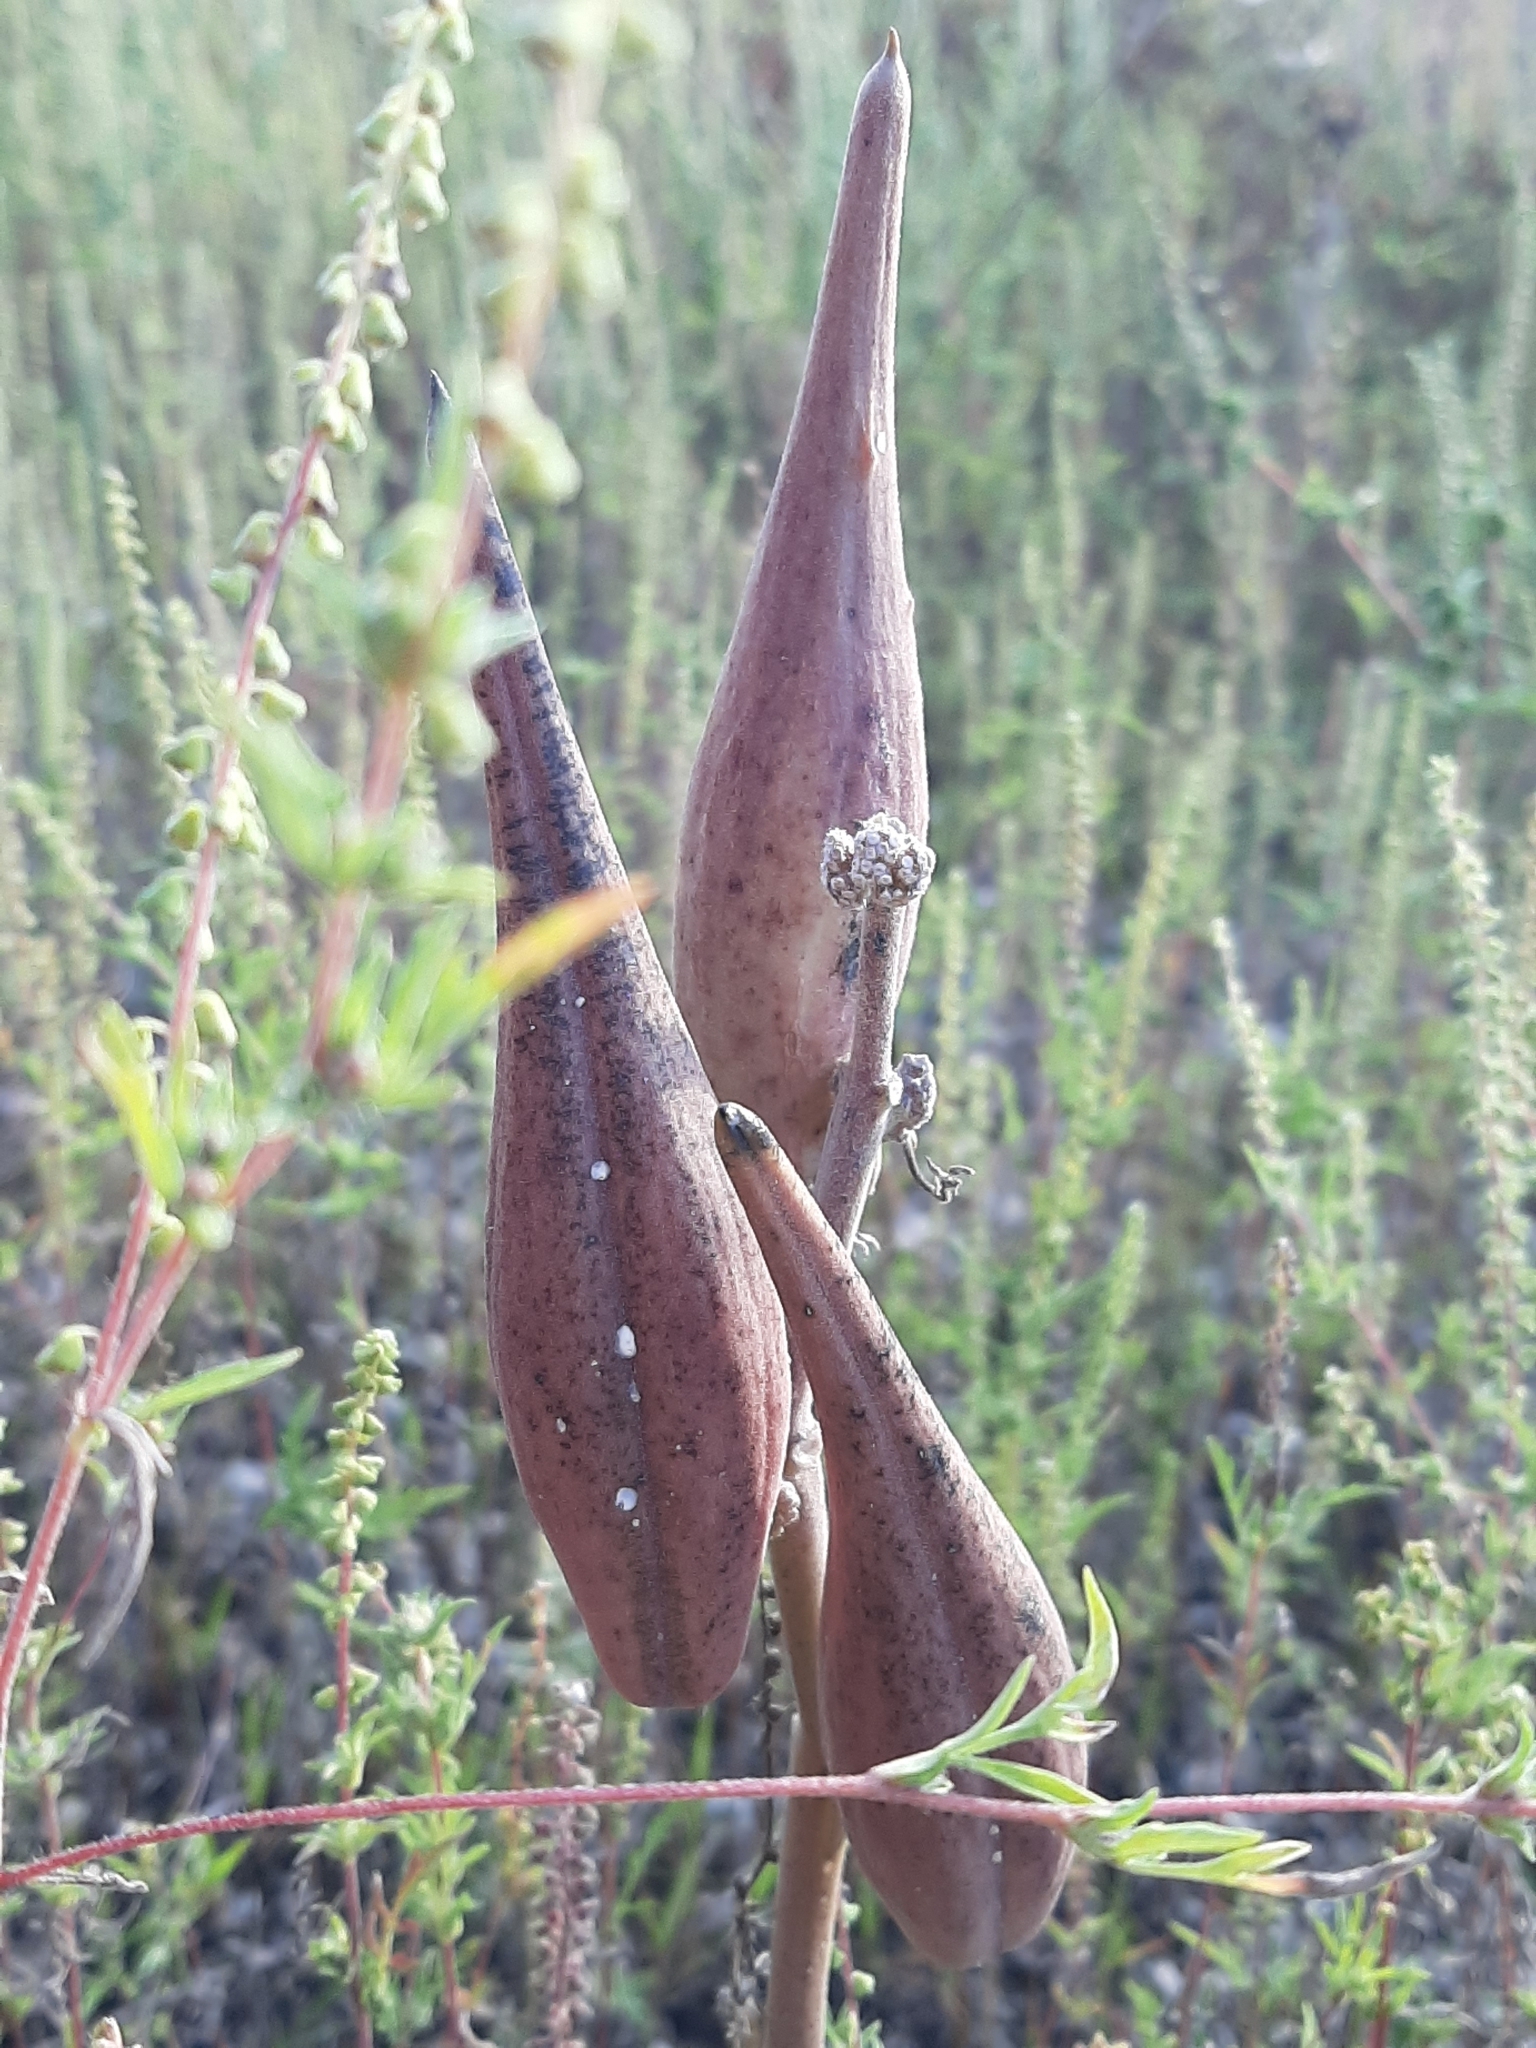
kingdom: Plantae
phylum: Tracheophyta
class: Magnoliopsida
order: Gentianales
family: Apocynaceae
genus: Asclepias
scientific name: Asclepias viridiflora
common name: Green comet milkweed
